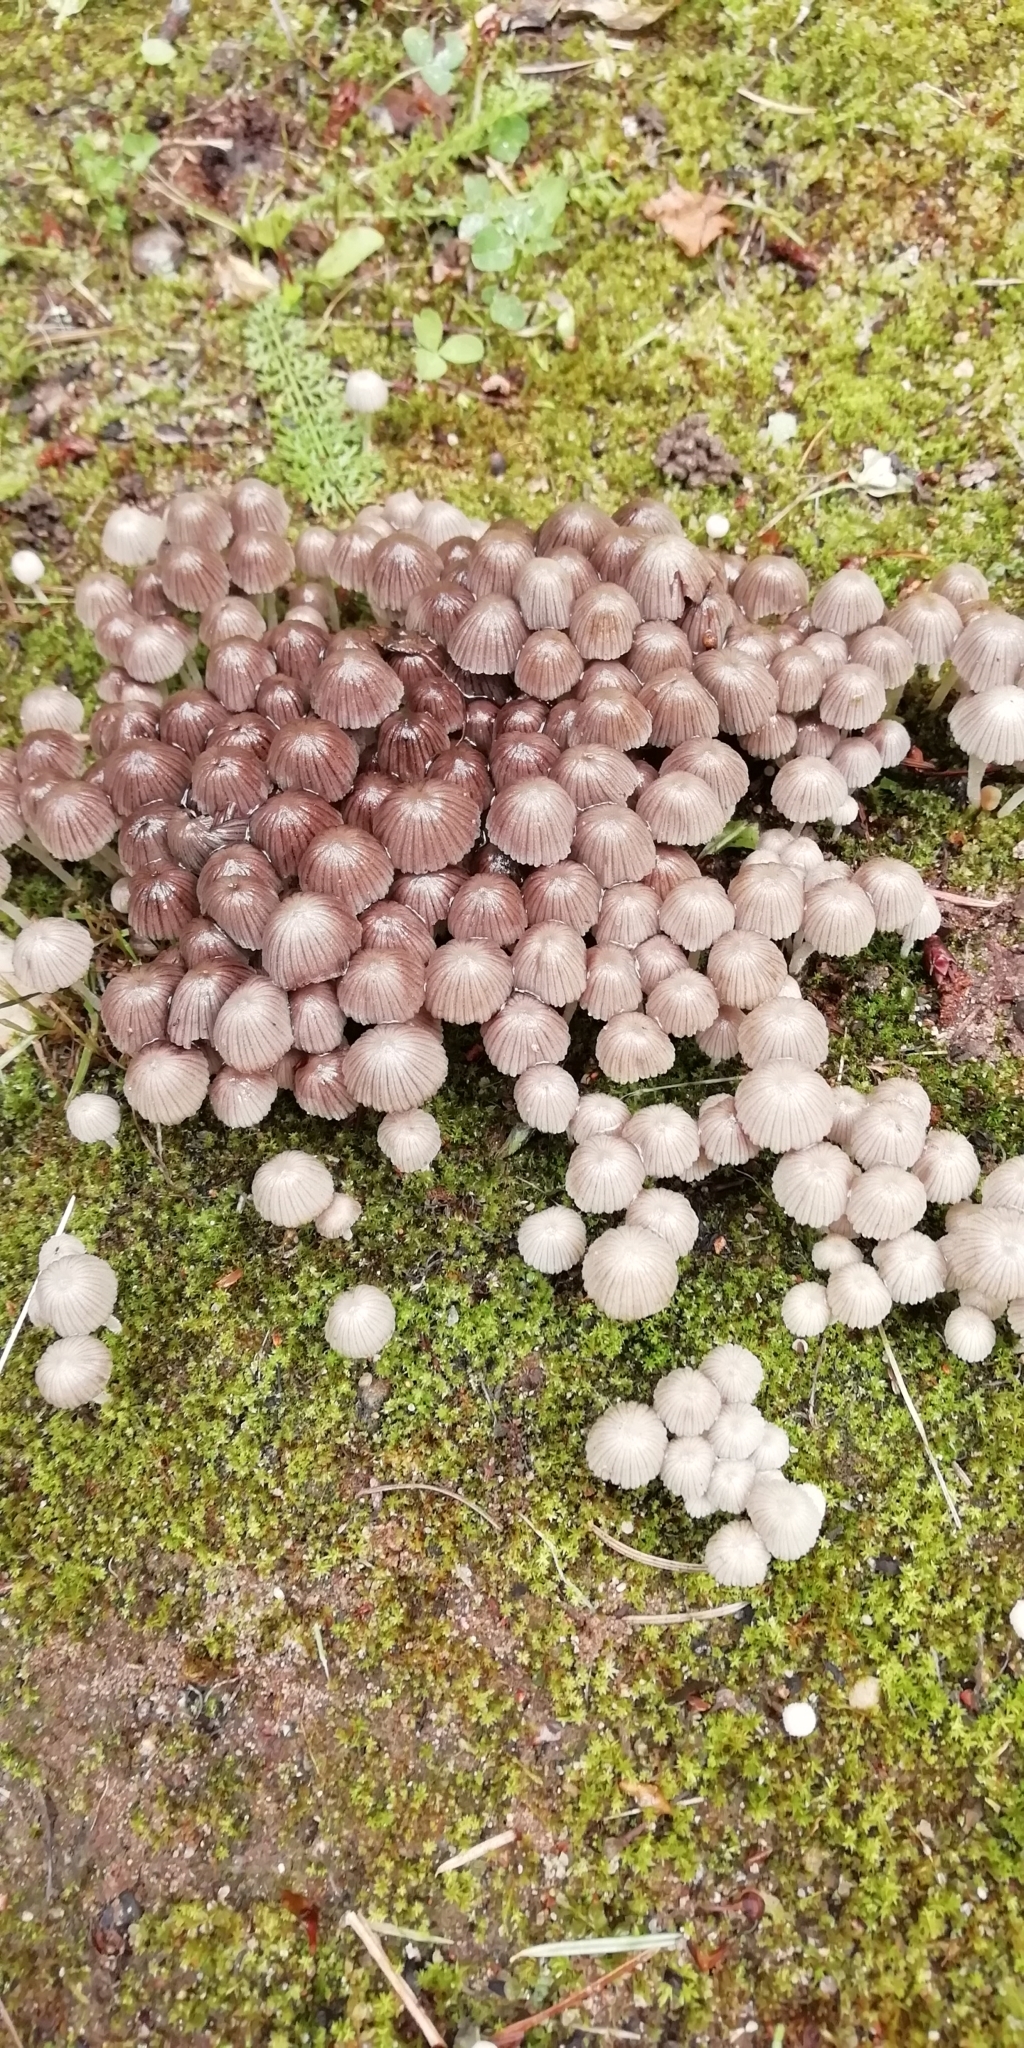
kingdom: Fungi
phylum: Basidiomycota
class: Agaricomycetes
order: Agaricales
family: Psathyrellaceae
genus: Coprinellus
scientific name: Coprinellus disseminatus
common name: Fairies' bonnets
